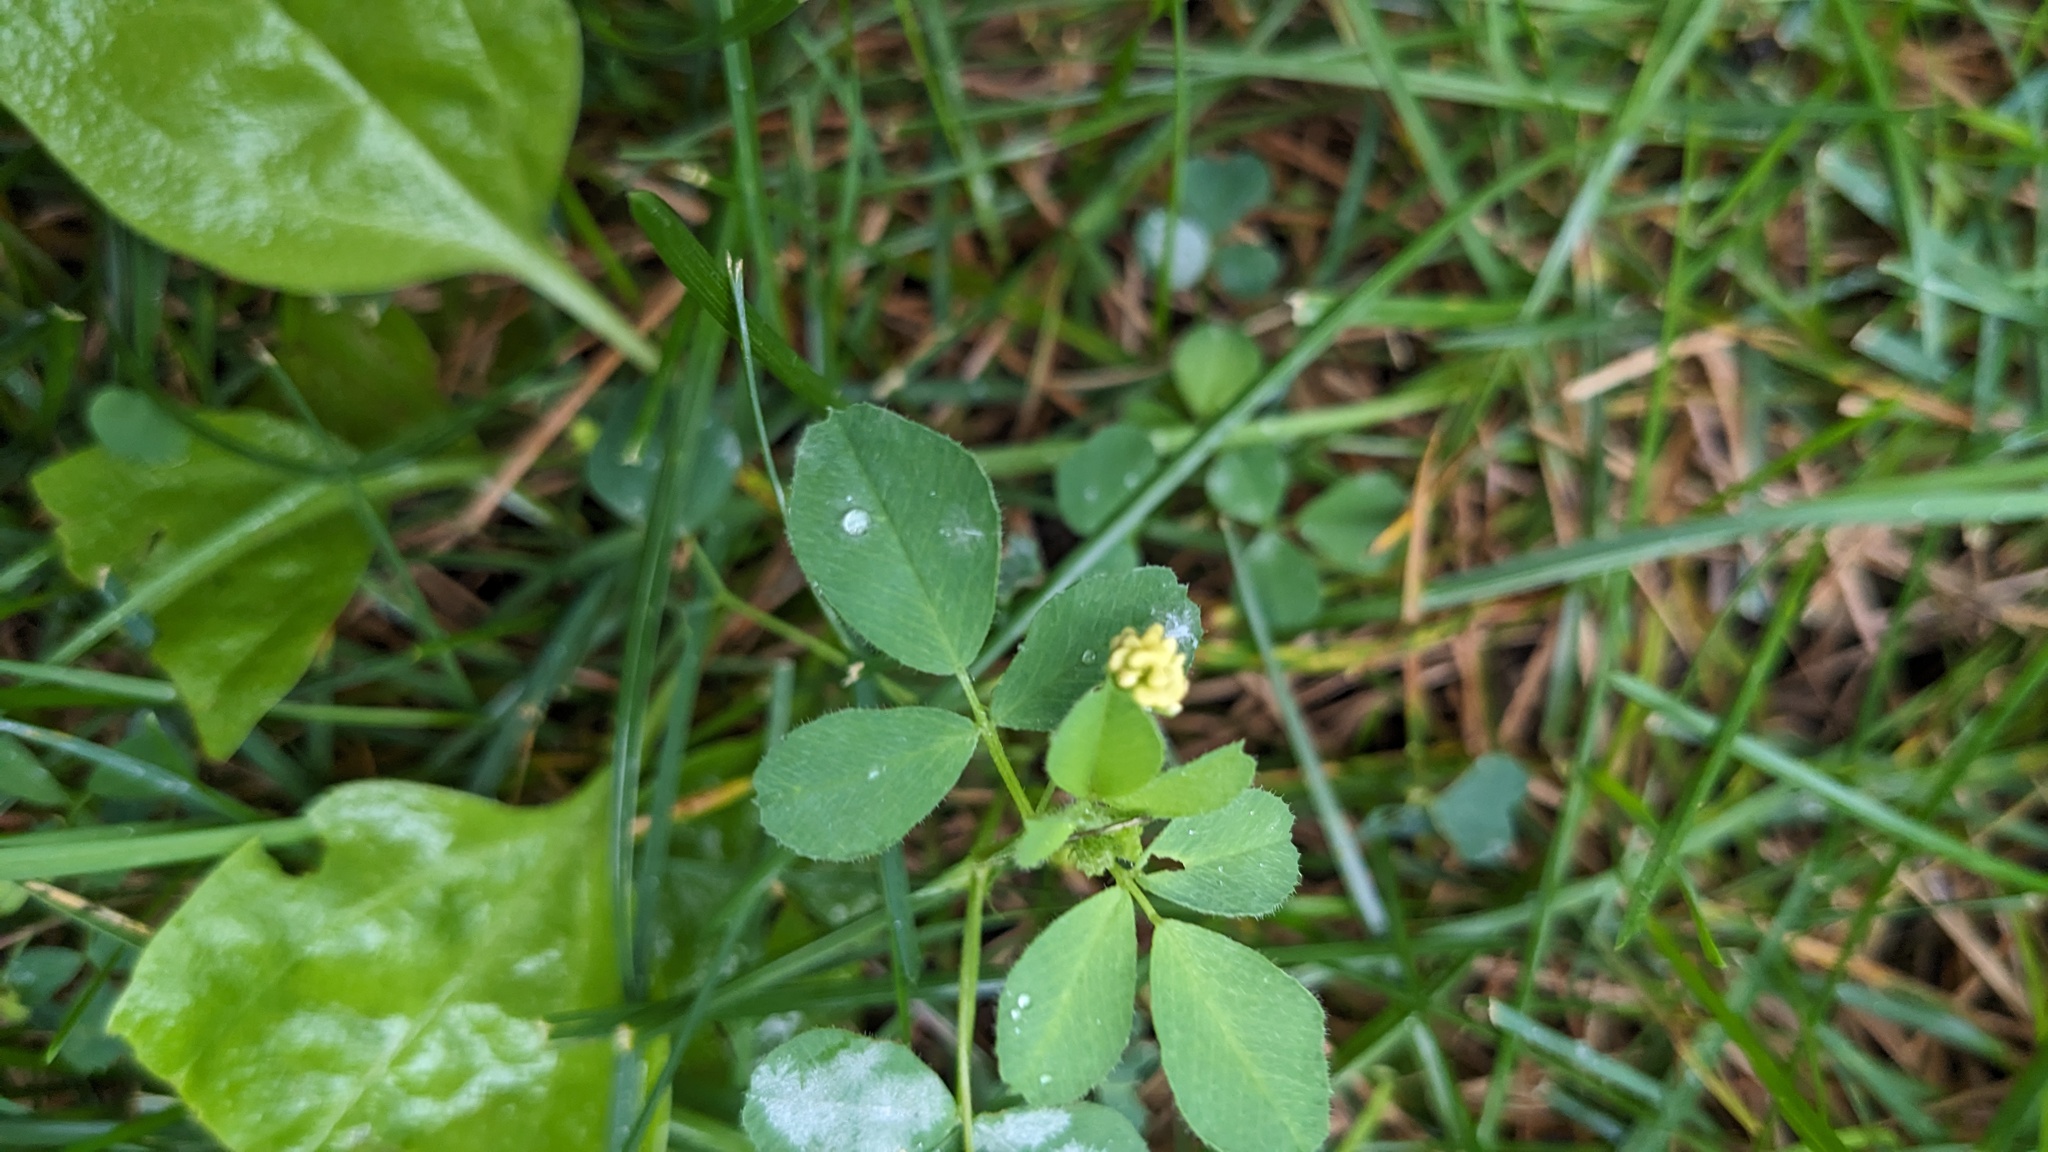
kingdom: Plantae
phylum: Tracheophyta
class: Magnoliopsida
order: Fabales
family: Fabaceae
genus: Medicago
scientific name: Medicago lupulina
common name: Black medick
